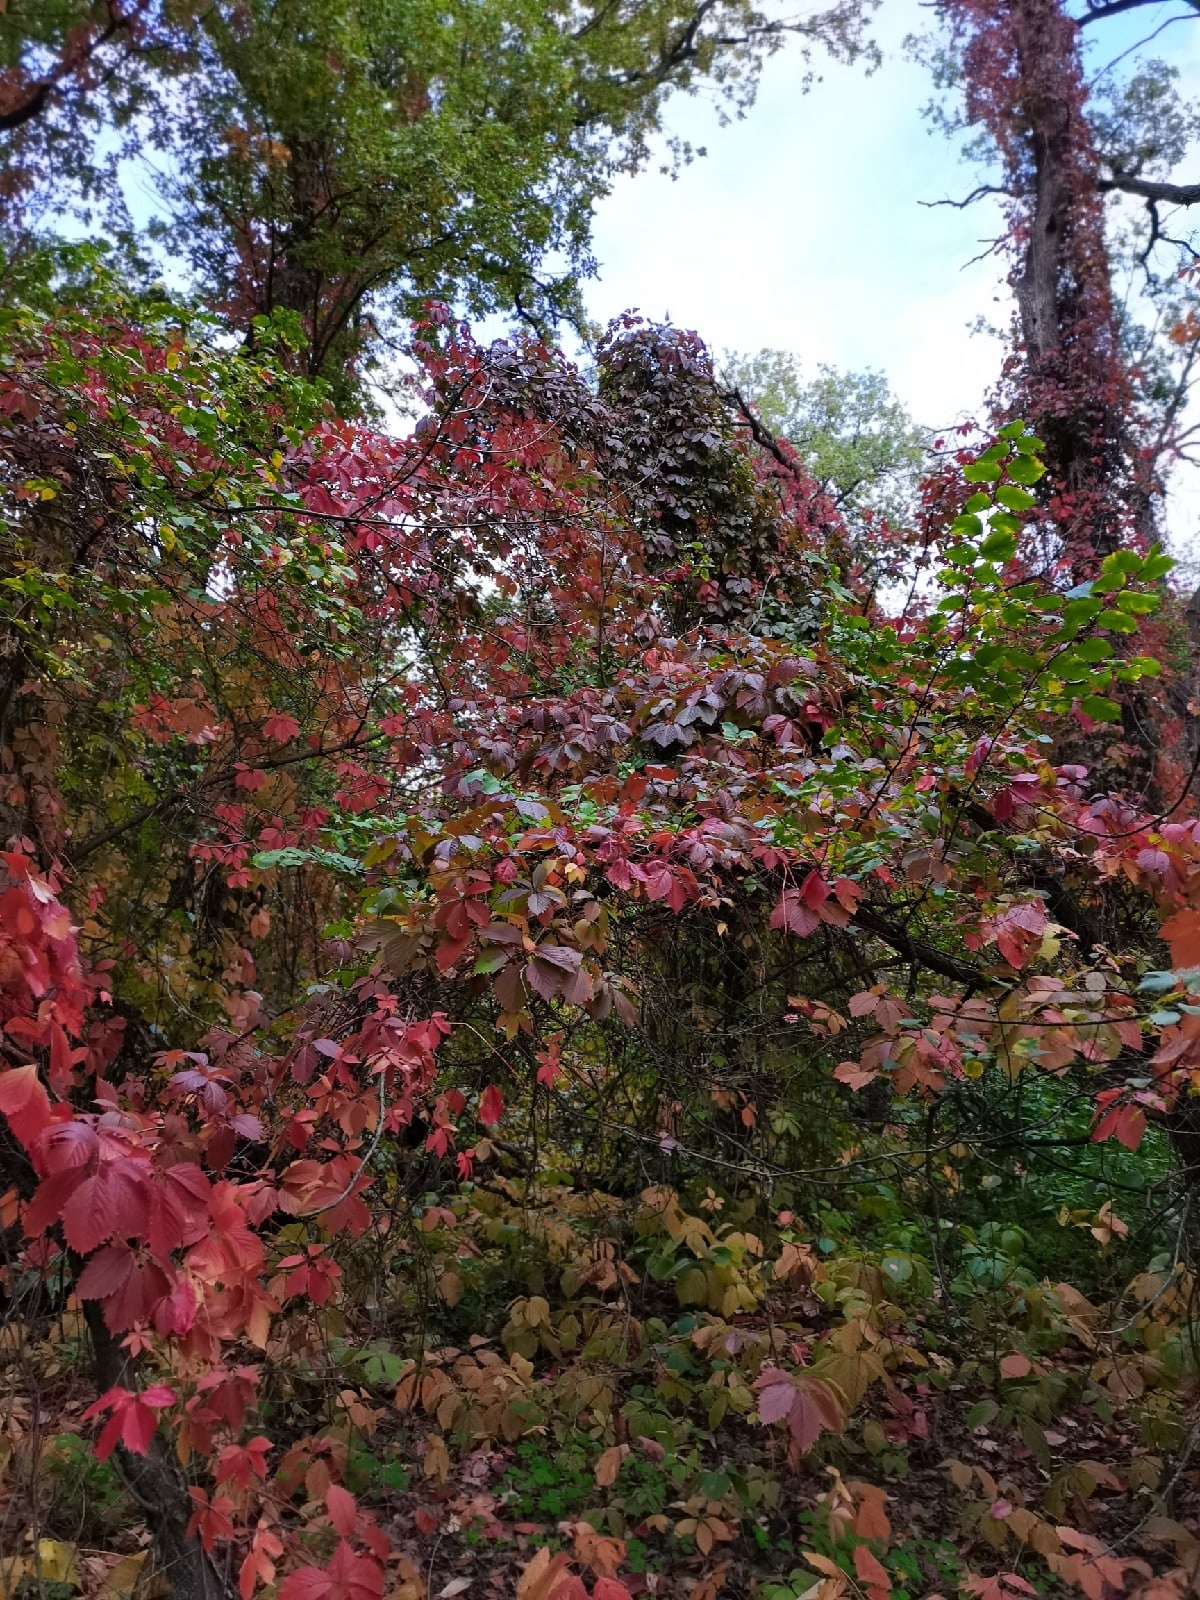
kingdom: Plantae
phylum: Tracheophyta
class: Magnoliopsida
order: Vitales
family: Vitaceae
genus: Parthenocissus
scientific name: Parthenocissus inserta
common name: False virginia-creeper
